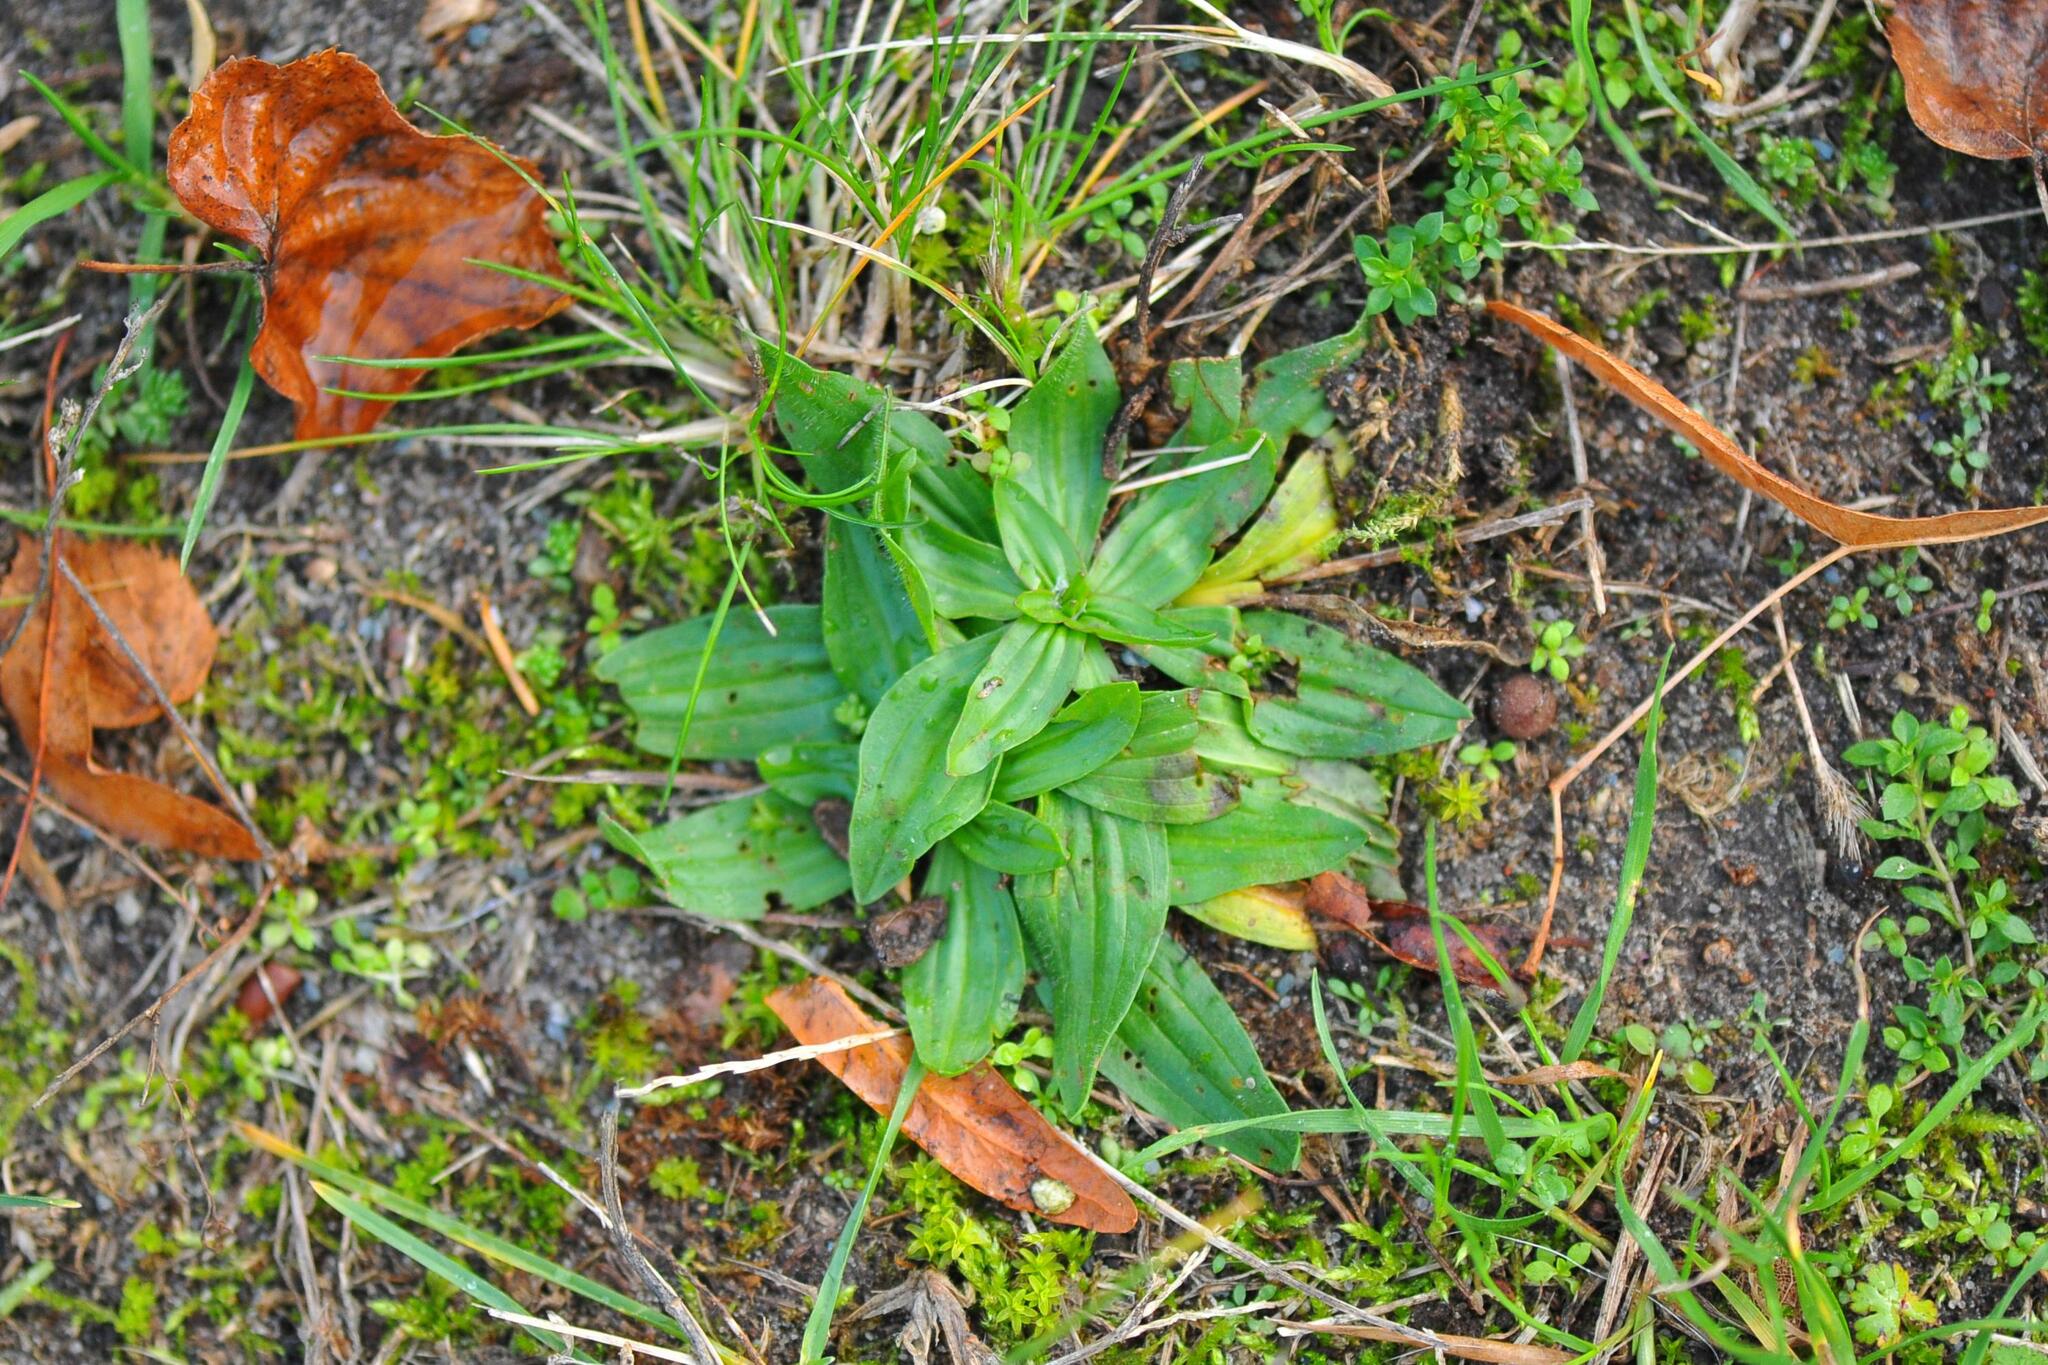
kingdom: Plantae
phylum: Tracheophyta
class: Magnoliopsida
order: Lamiales
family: Plantaginaceae
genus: Plantago
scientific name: Plantago lanceolata
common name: Ribwort plantain
